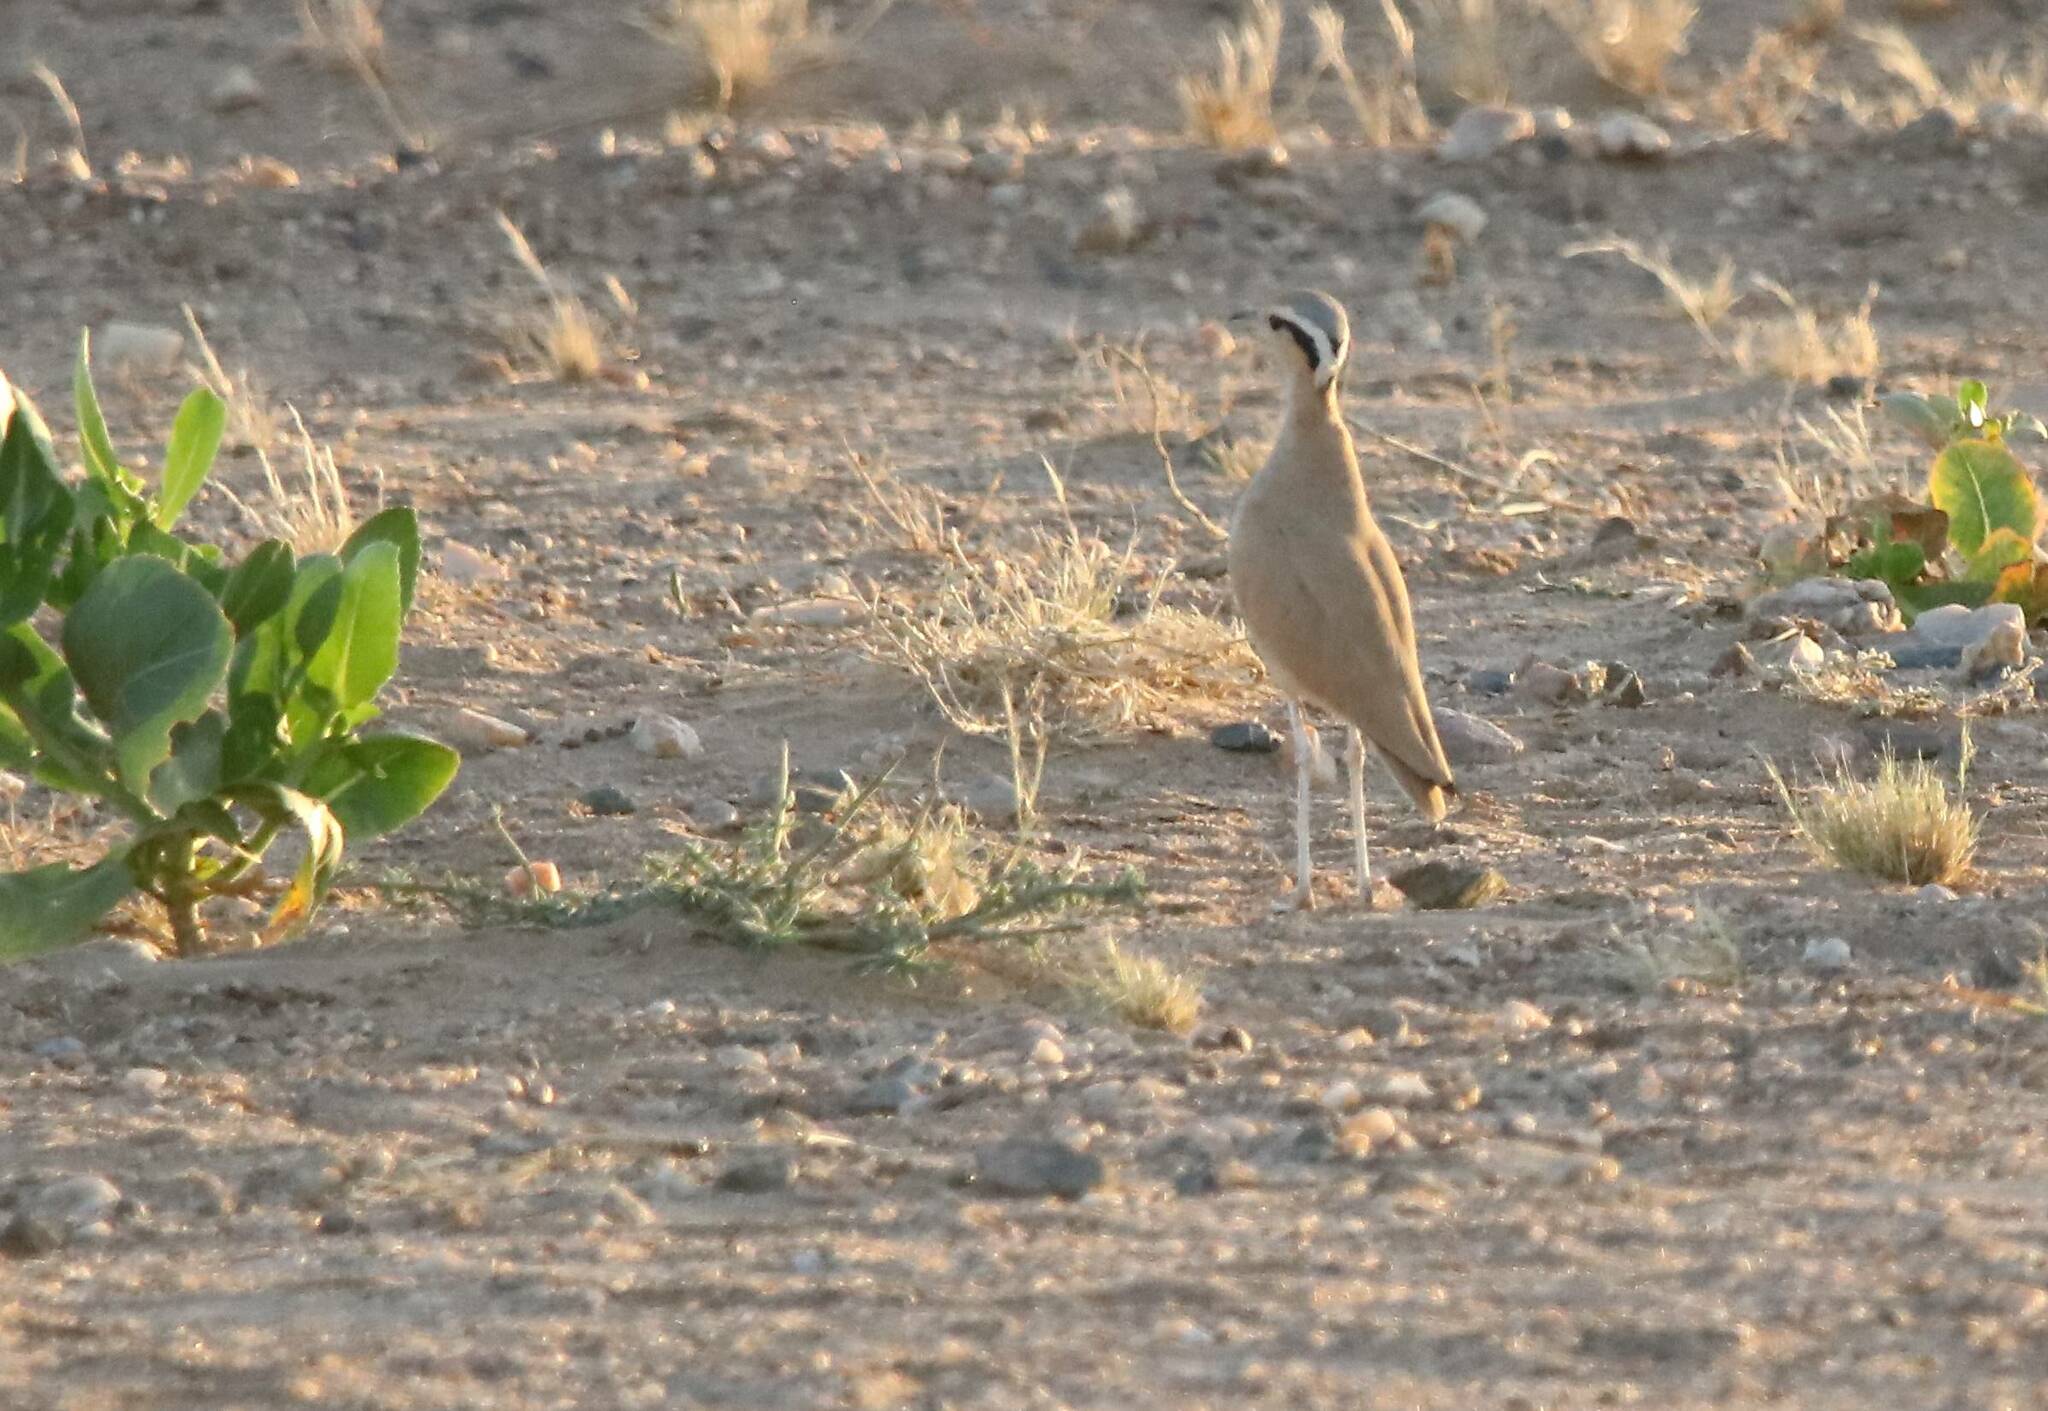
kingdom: Animalia
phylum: Chordata
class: Aves
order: Charadriiformes
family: Glareolidae
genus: Cursorius
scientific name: Cursorius cursor
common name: Cream-colored courser
